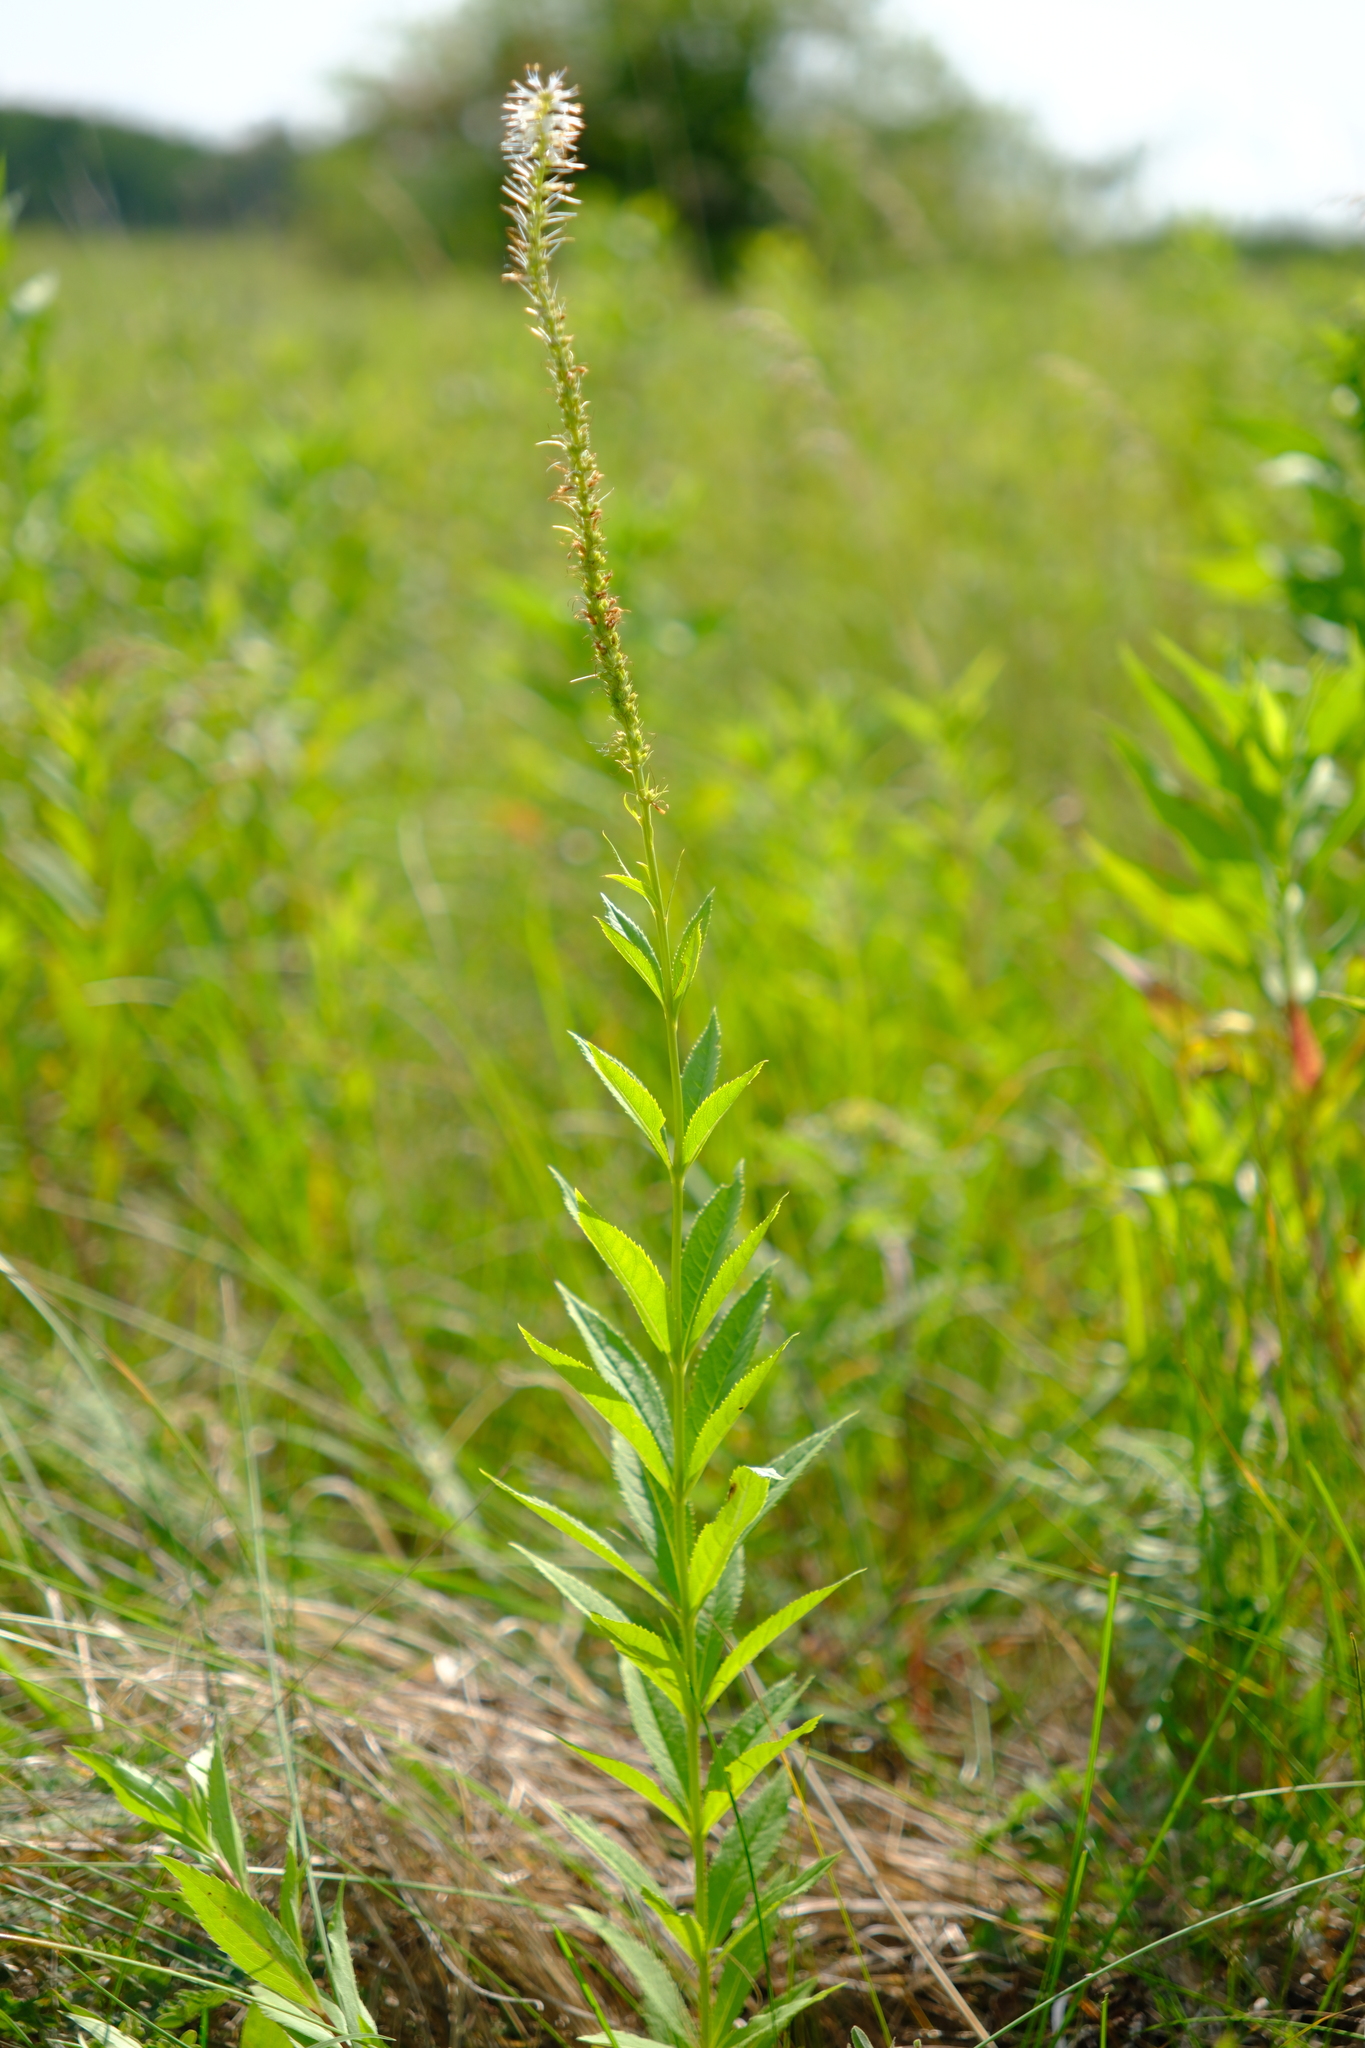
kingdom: Plantae
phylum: Tracheophyta
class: Magnoliopsida
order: Lamiales
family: Plantaginaceae
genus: Veronicastrum
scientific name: Veronicastrum virginicum
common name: Blackroot
